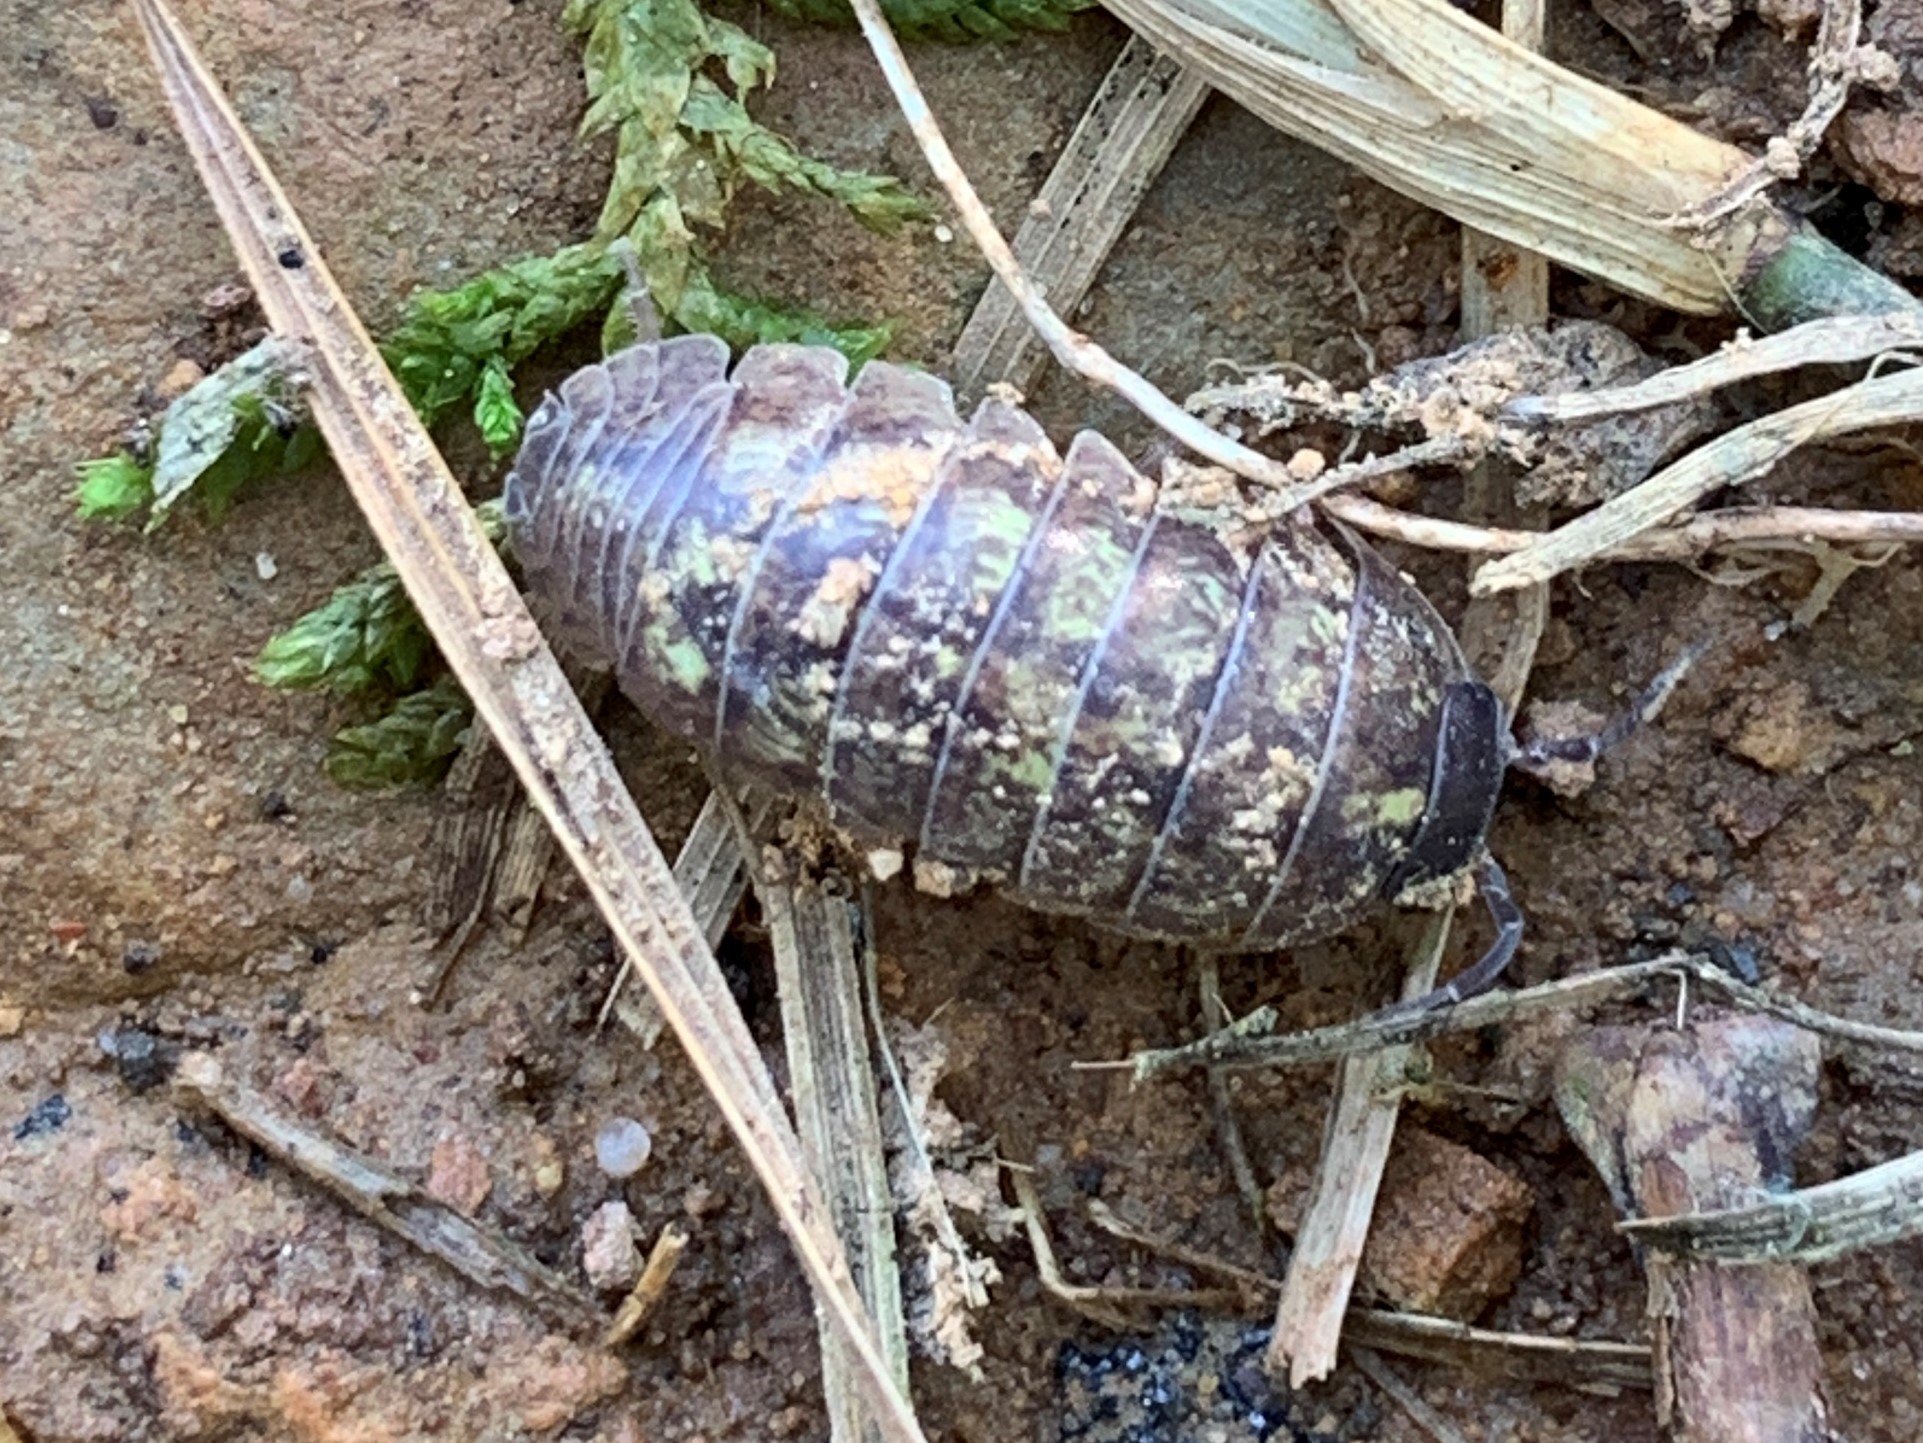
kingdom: Animalia
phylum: Arthropoda
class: Malacostraca
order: Isopoda
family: Armadillidiidae
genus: Armadillidium
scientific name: Armadillidium vulgare
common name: Common pill woodlouse
